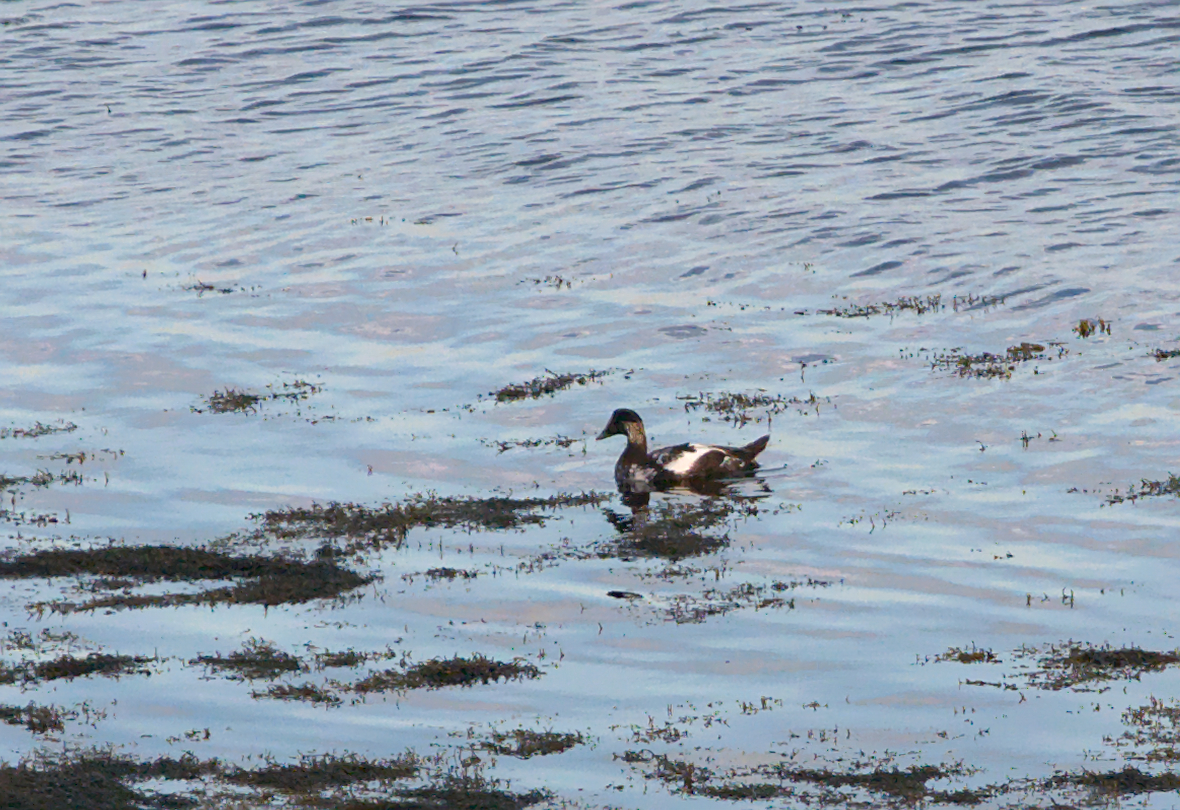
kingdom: Animalia
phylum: Chordata
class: Aves
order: Anseriformes
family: Anatidae
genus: Somateria
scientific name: Somateria mollissima
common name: Common eider
